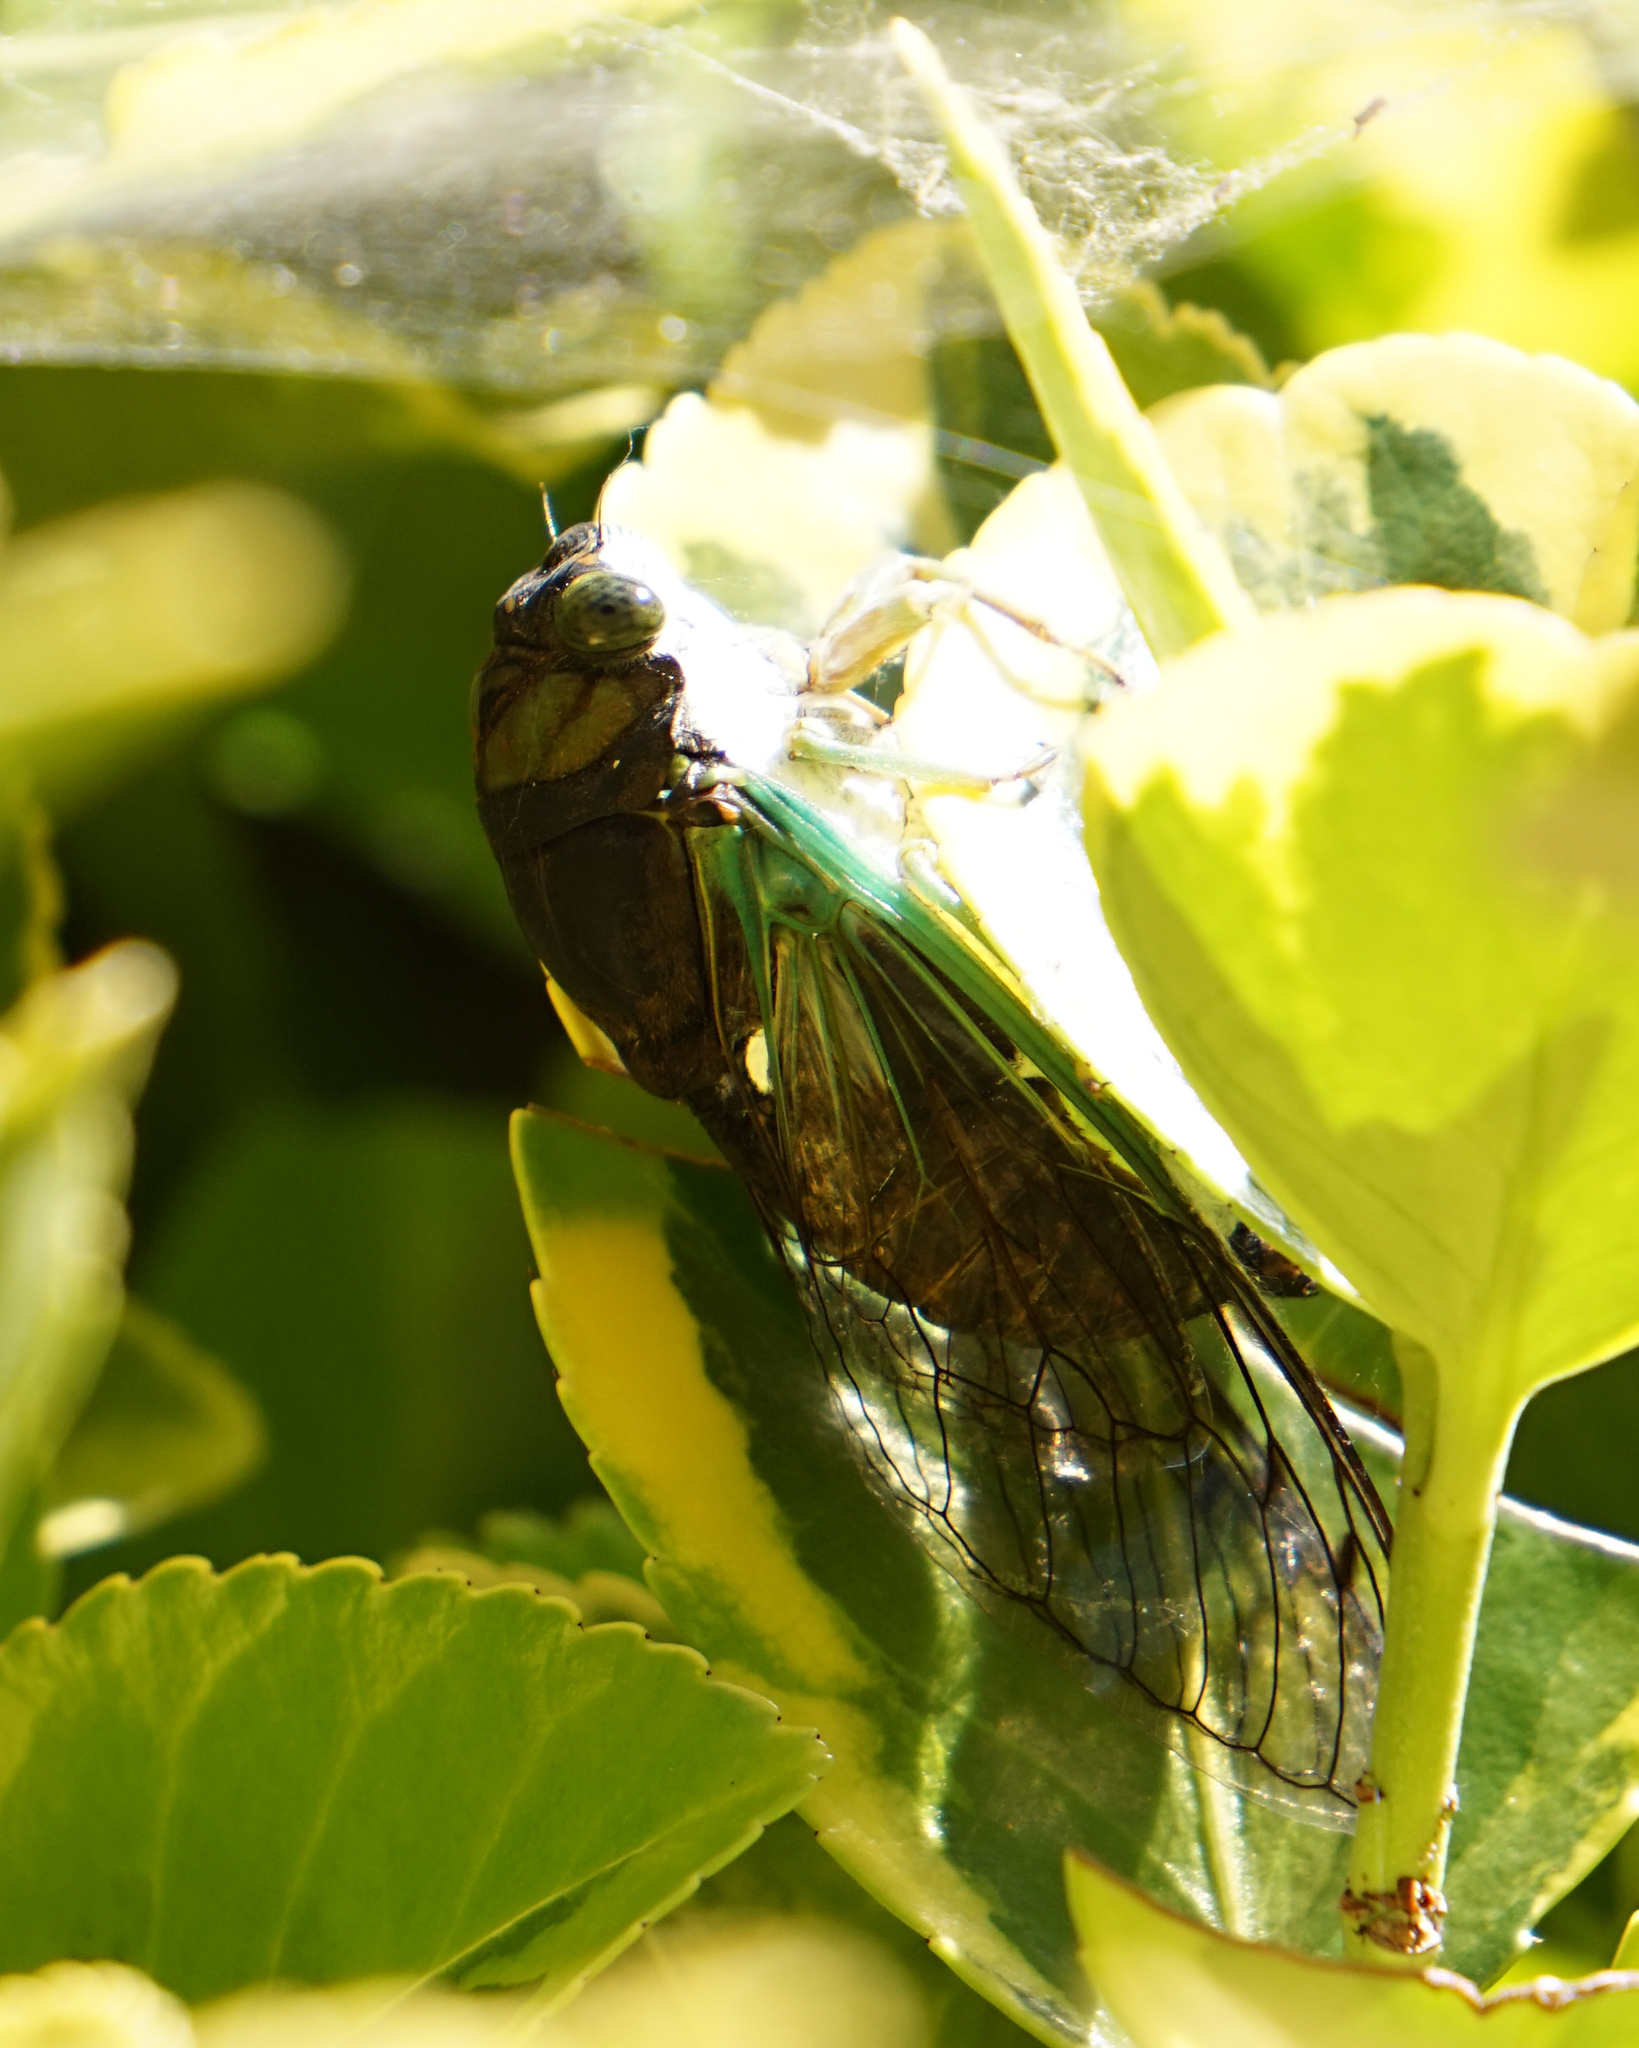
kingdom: Animalia
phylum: Arthropoda
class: Insecta
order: Hemiptera
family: Cicadidae
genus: Neotibicen
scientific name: Neotibicen tibicen
